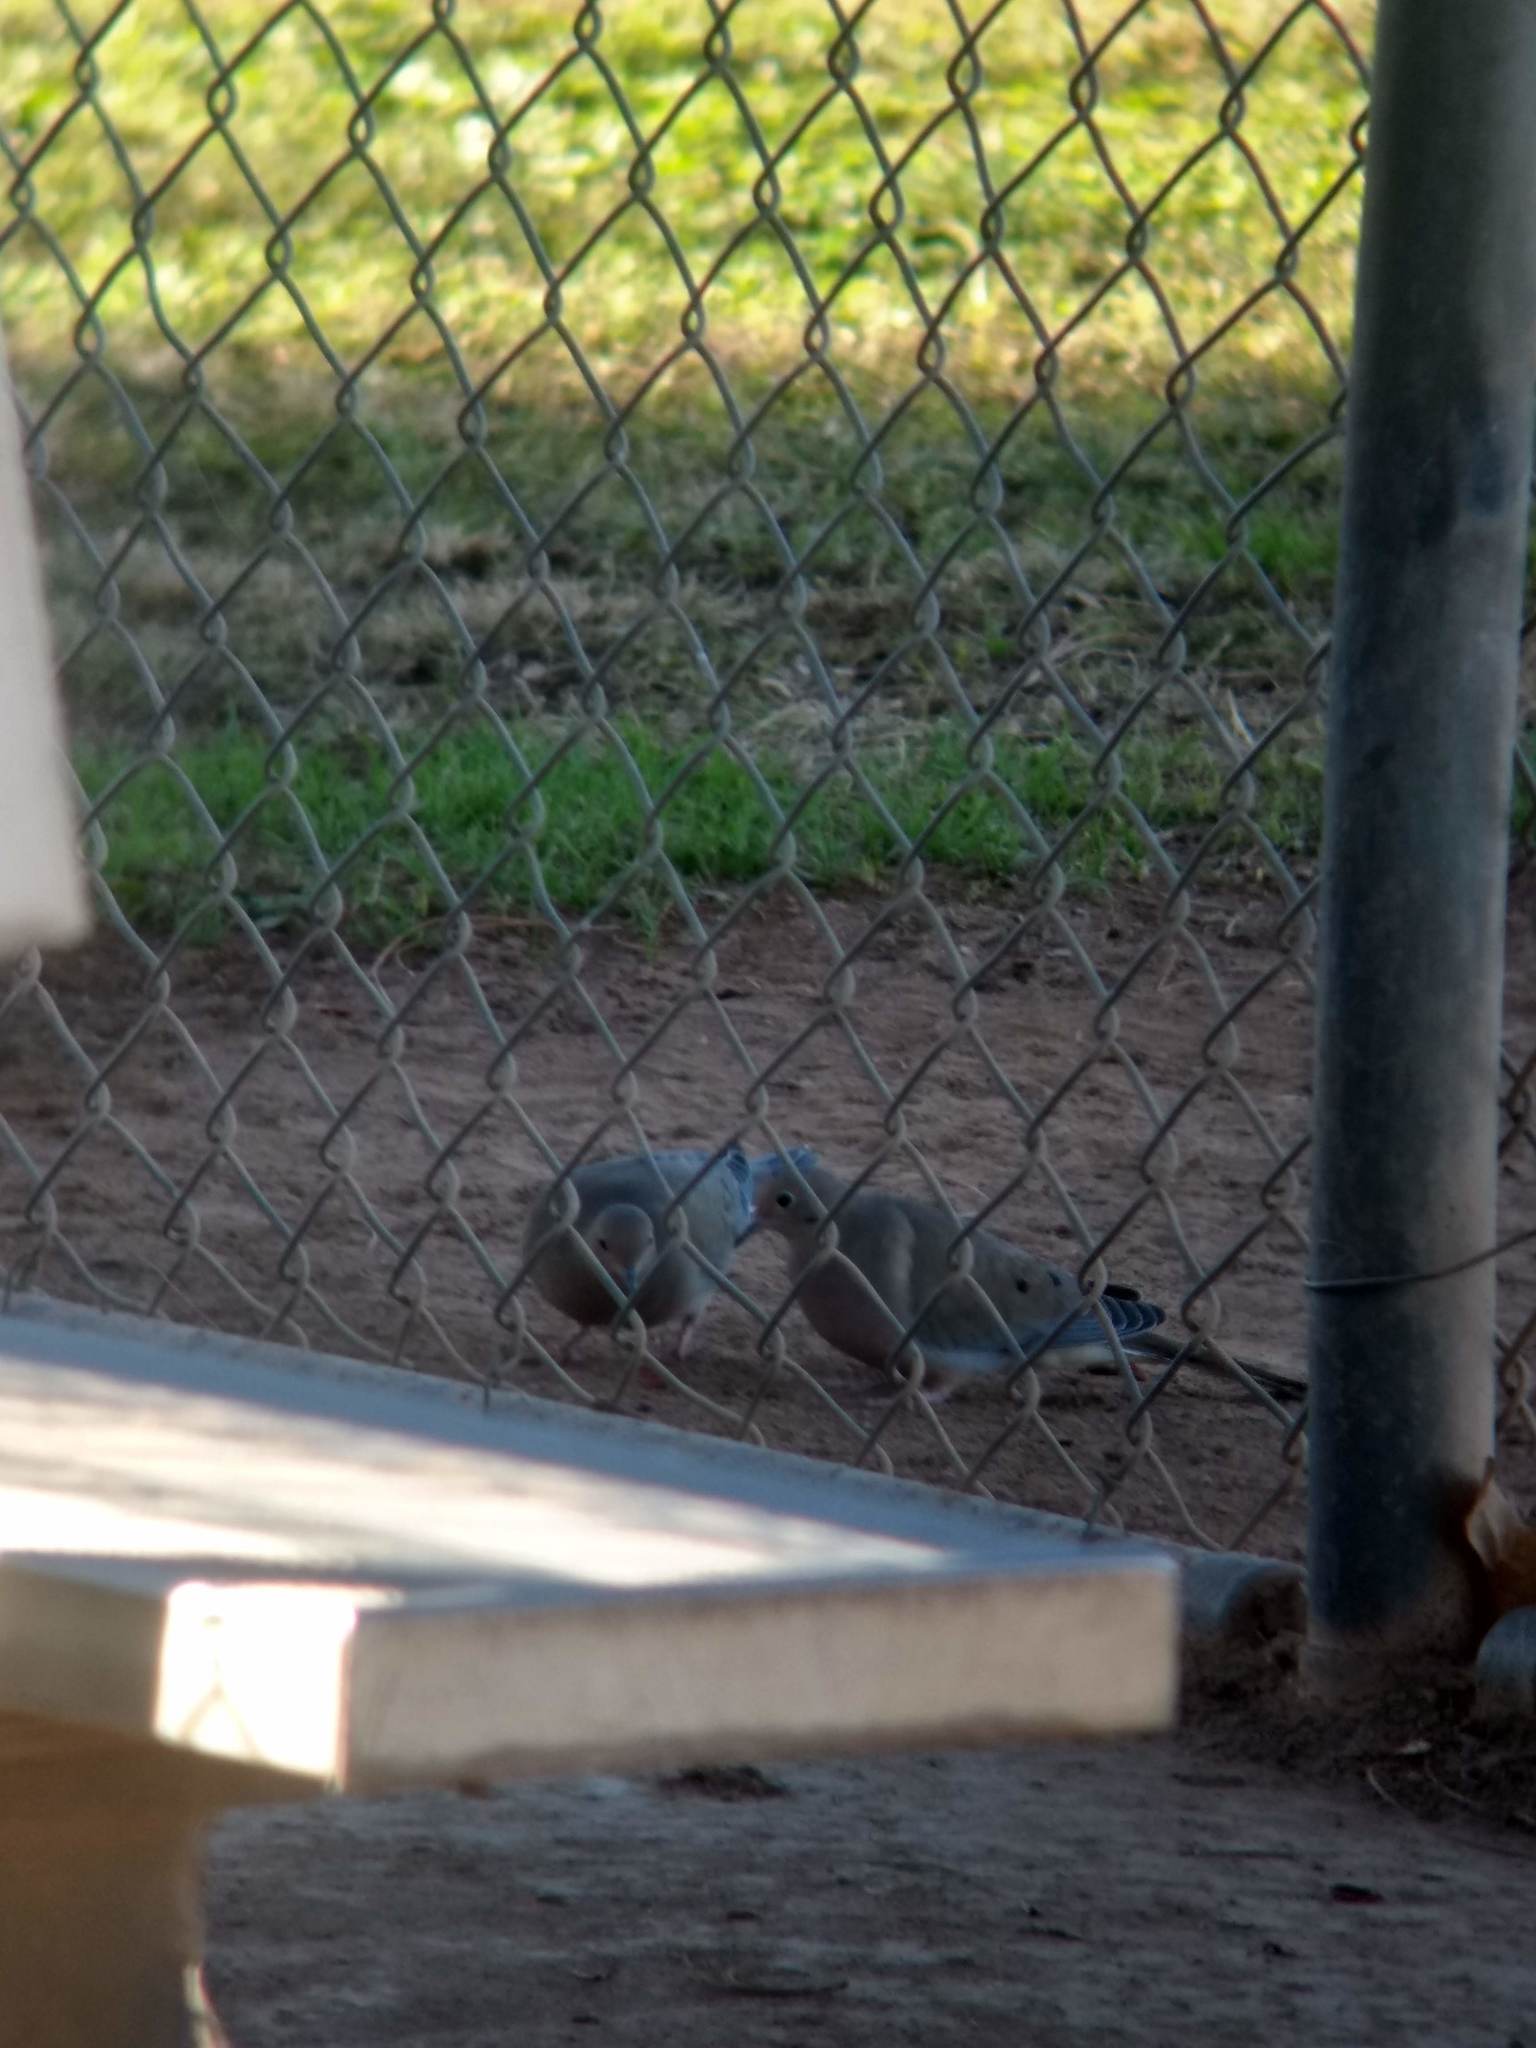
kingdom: Animalia
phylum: Chordata
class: Aves
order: Columbiformes
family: Columbidae
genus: Zenaida
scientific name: Zenaida macroura
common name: Mourning dove
